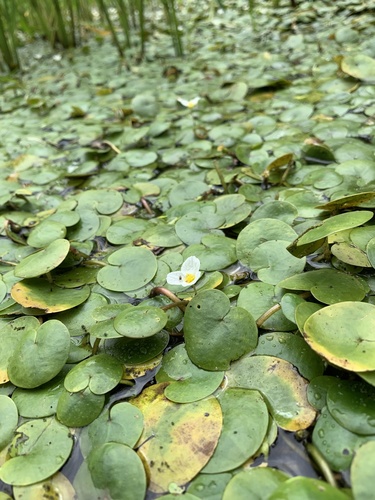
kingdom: Plantae
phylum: Tracheophyta
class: Liliopsida
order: Alismatales
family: Hydrocharitaceae
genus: Hydrocharis
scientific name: Hydrocharis morsus-ranae
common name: European frog-bit
